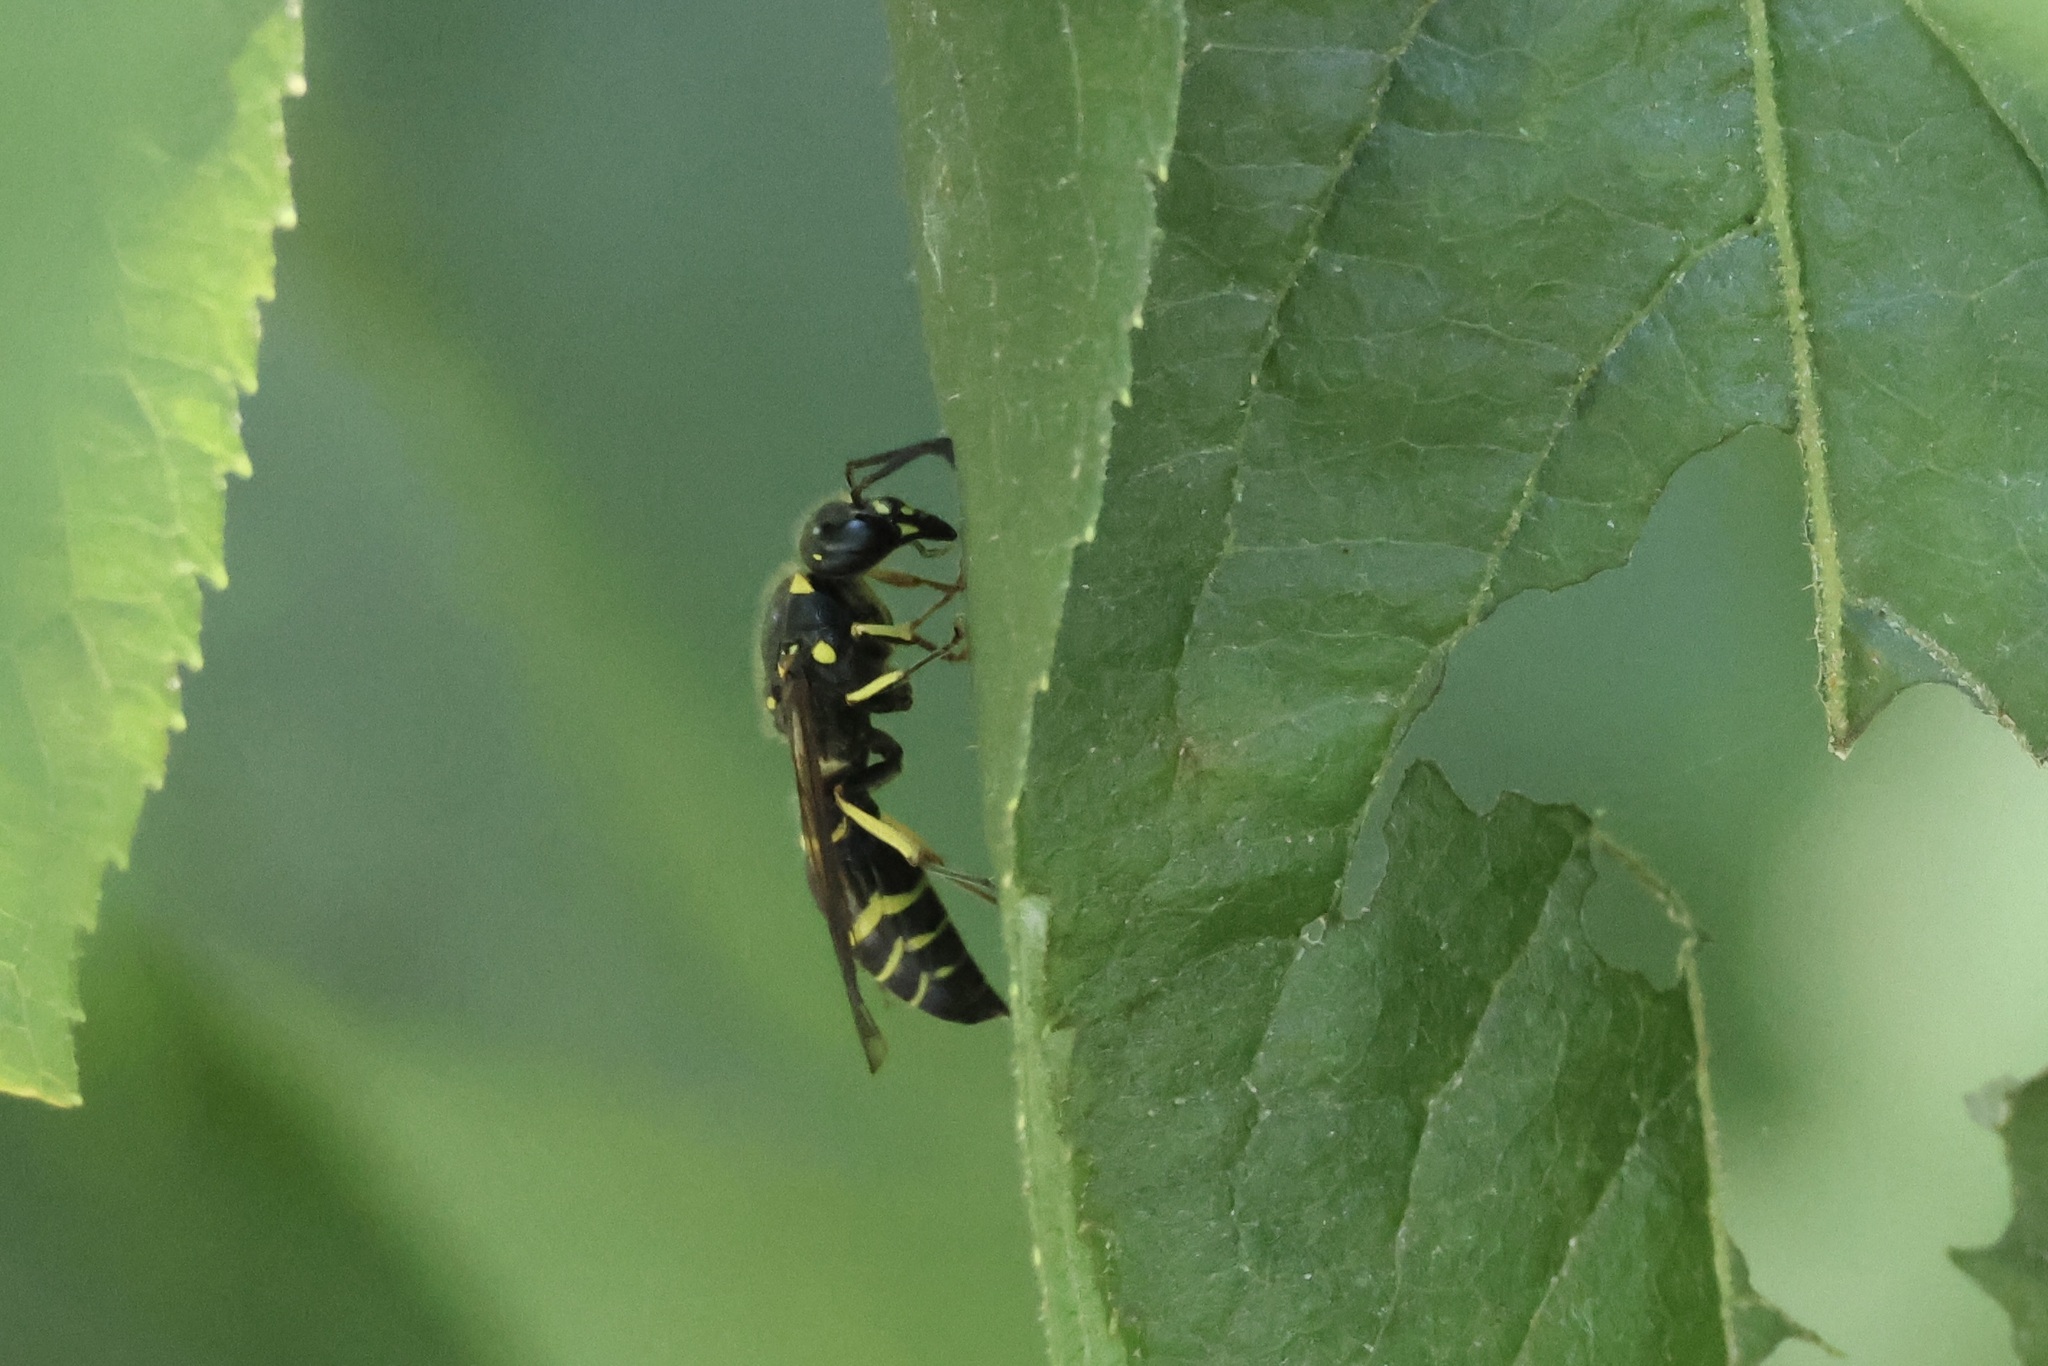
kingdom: Animalia
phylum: Arthropoda
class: Insecta
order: Hymenoptera
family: Vespidae
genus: Ancistrocerus
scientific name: Ancistrocerus
